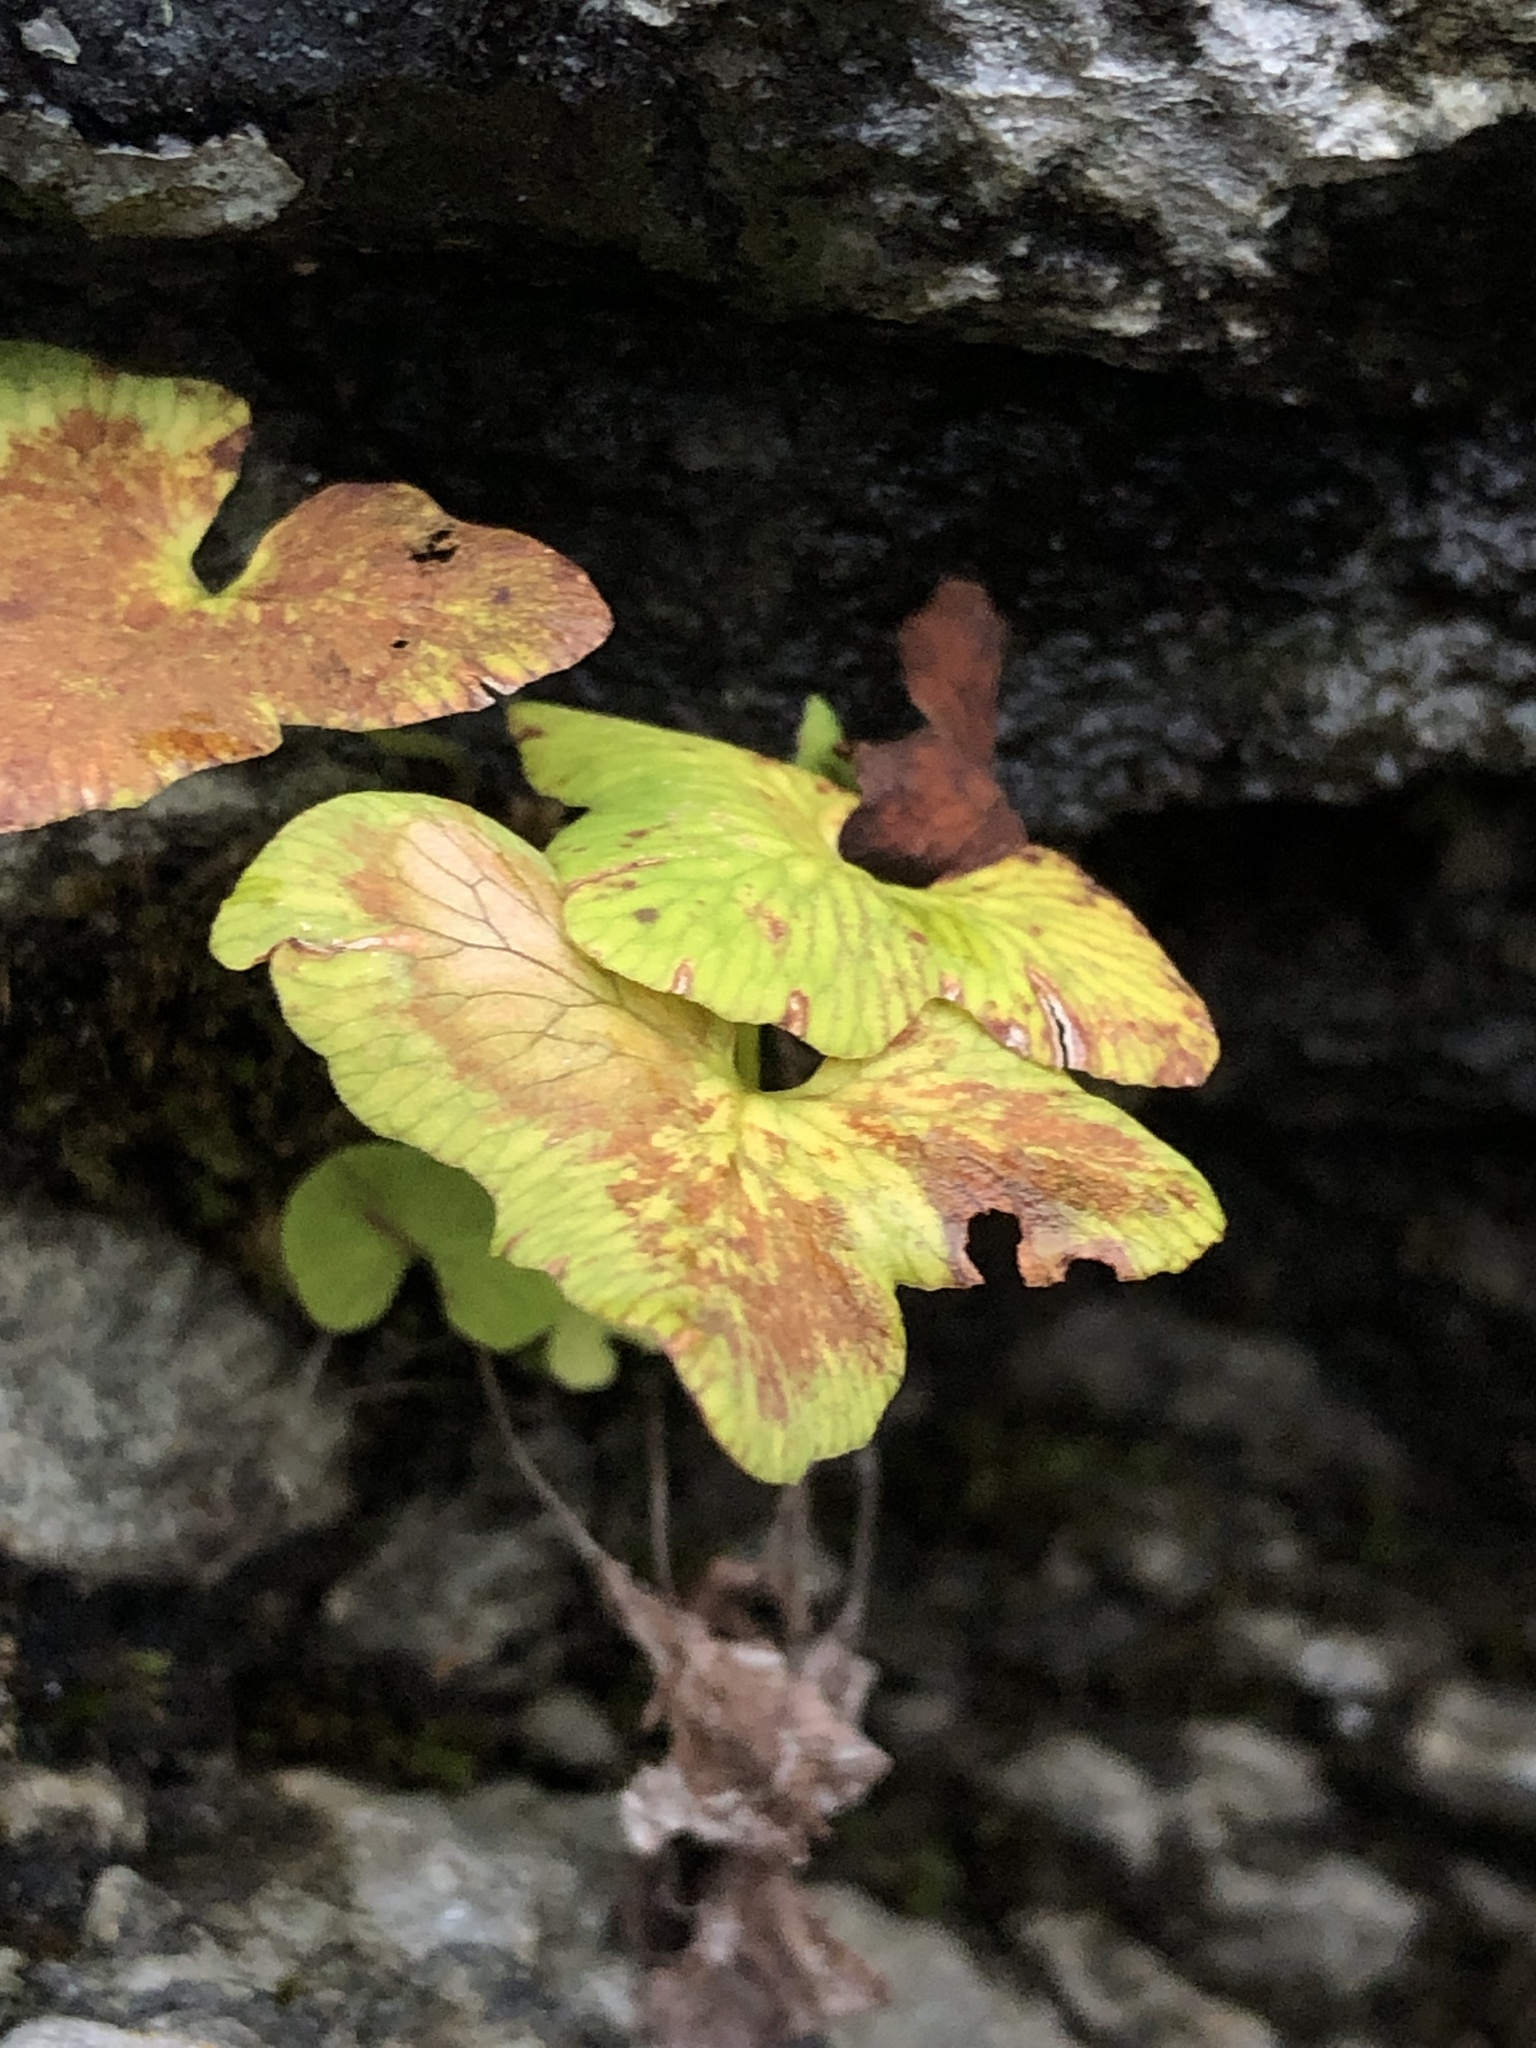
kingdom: Plantae
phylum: Tracheophyta
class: Polypodiopsida
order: Polypodiales
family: Onocleaceae
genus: Onoclea
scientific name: Onoclea sensibilis
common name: Sensitive fern
